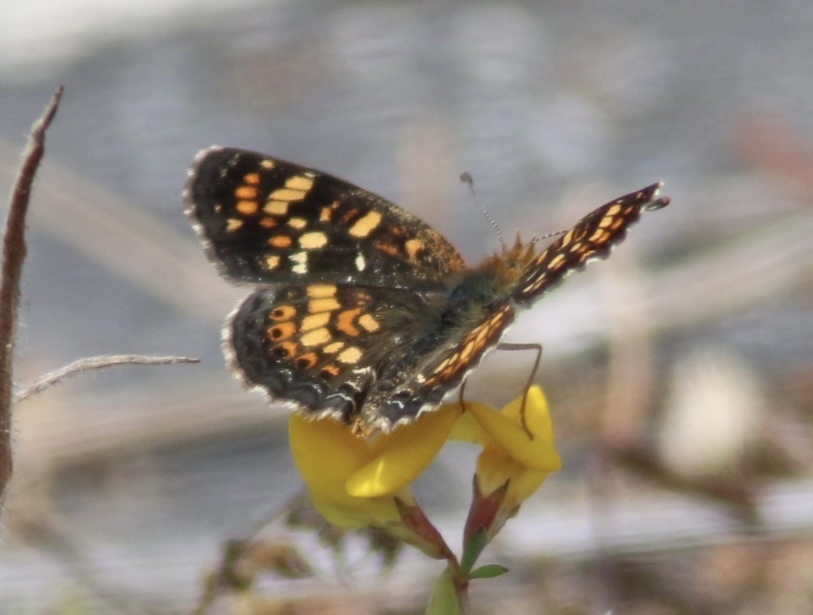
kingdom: Animalia
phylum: Arthropoda
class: Insecta
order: Lepidoptera
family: Nymphalidae
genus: Phyciodes
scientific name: Phyciodes tharos
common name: Pearl crescent
